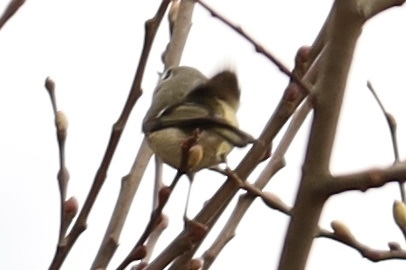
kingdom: Animalia
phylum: Chordata
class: Aves
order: Passeriformes
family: Regulidae
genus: Regulus
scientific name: Regulus calendula
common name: Ruby-crowned kinglet
